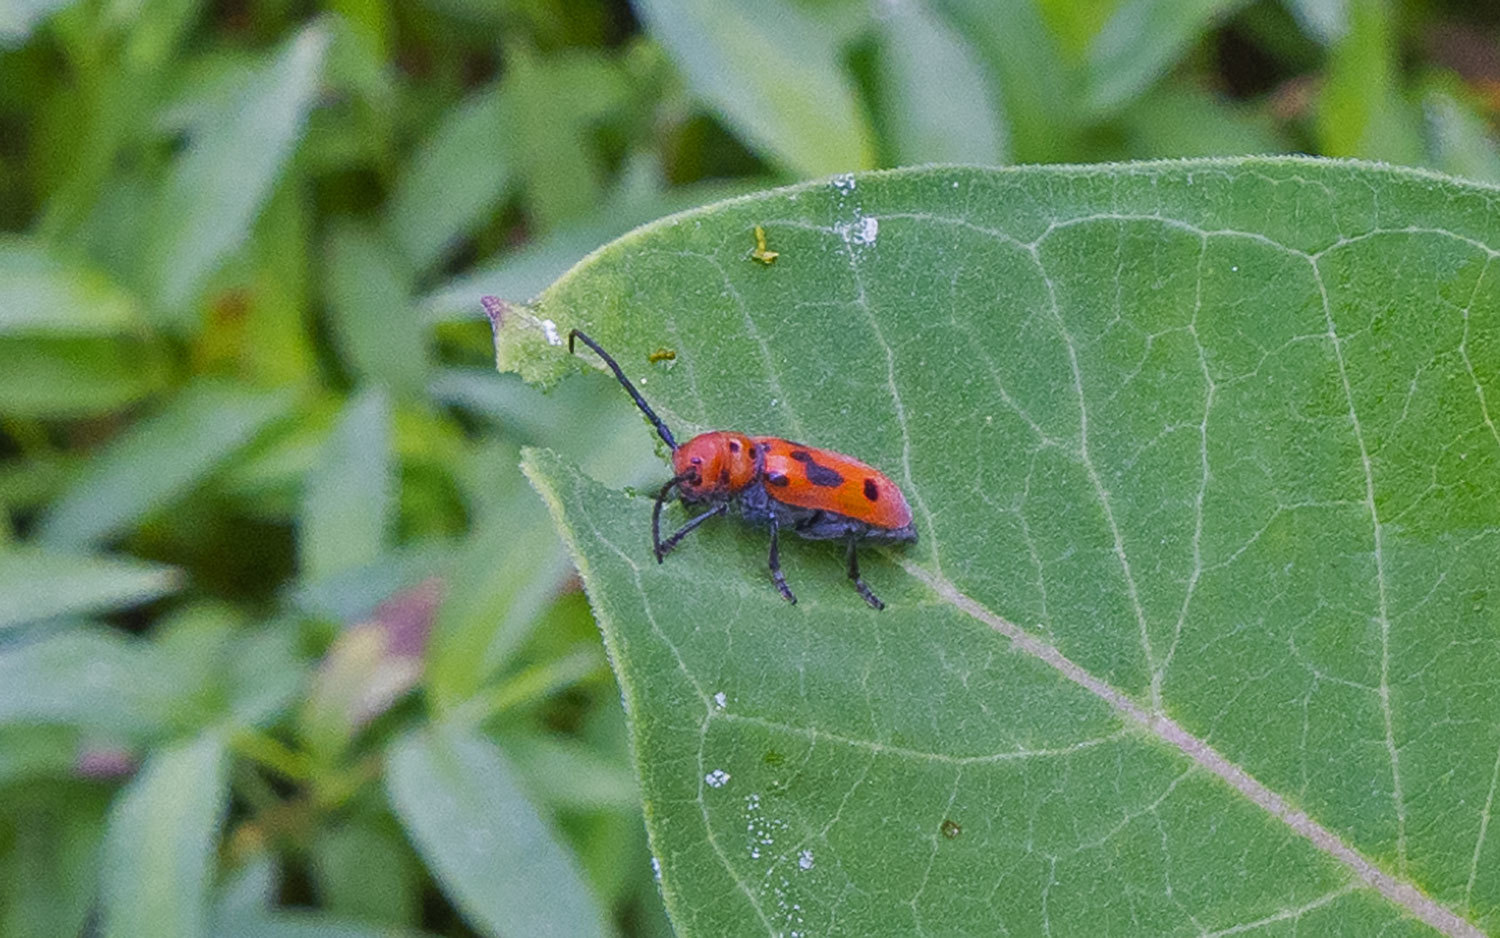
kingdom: Animalia
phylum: Arthropoda
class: Insecta
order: Coleoptera
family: Cerambycidae
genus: Tetraopes
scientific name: Tetraopes tetrophthalmus
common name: Red milkweed beetle
